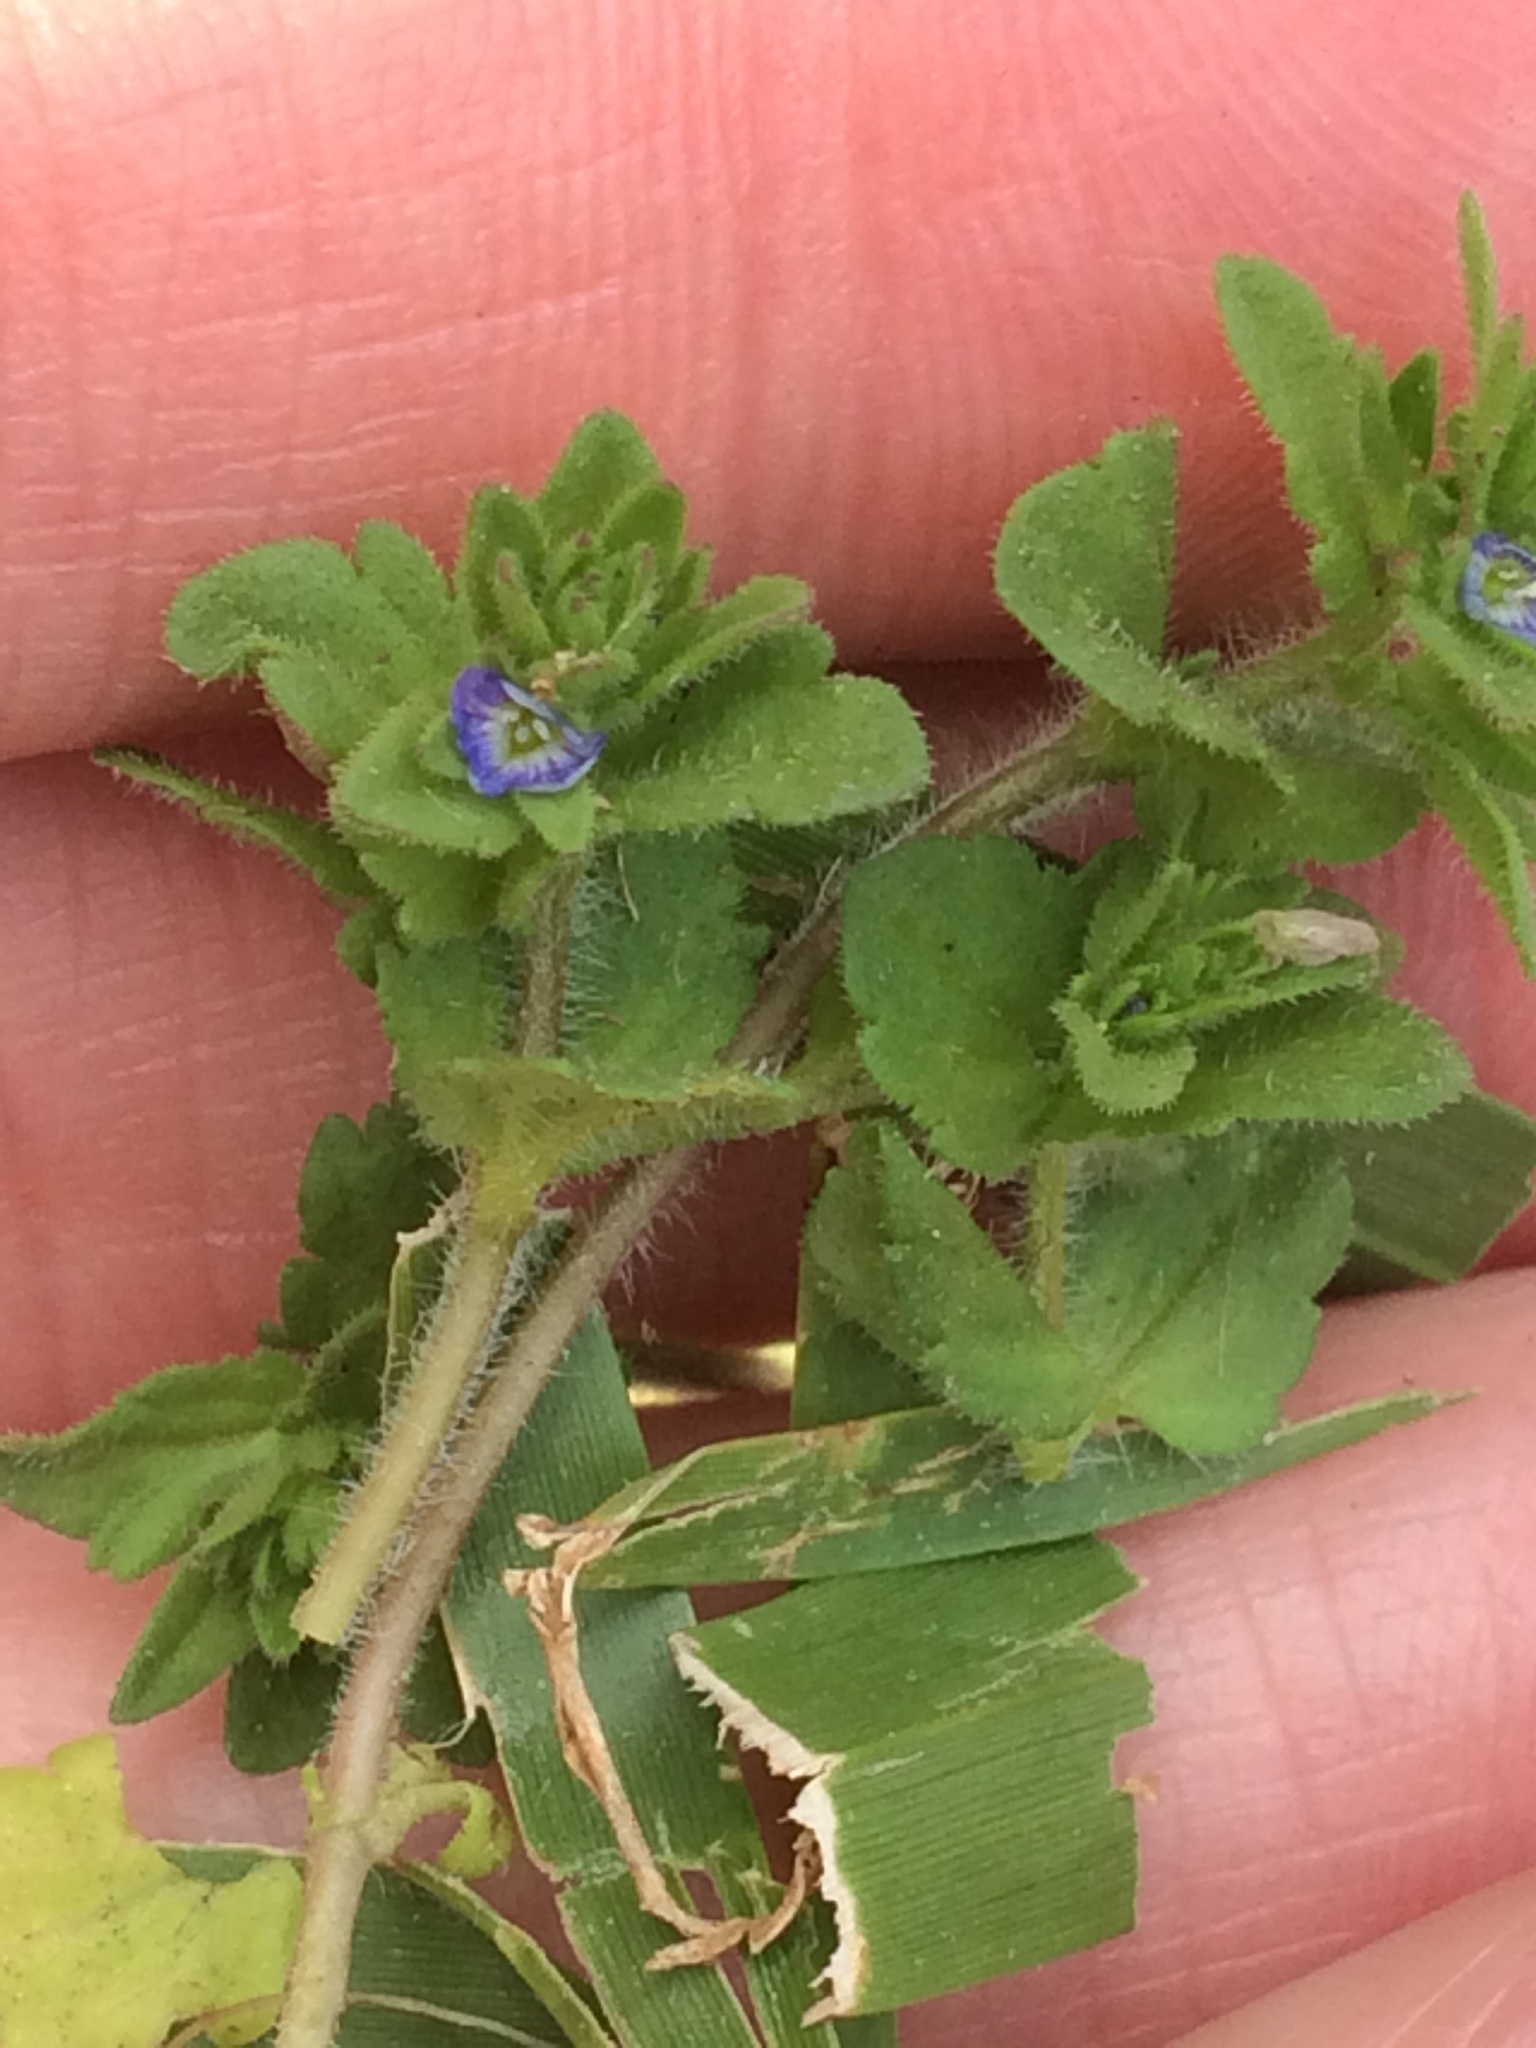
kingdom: Plantae
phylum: Tracheophyta
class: Magnoliopsida
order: Lamiales
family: Plantaginaceae
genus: Veronica
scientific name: Veronica arvensis
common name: Corn speedwell
